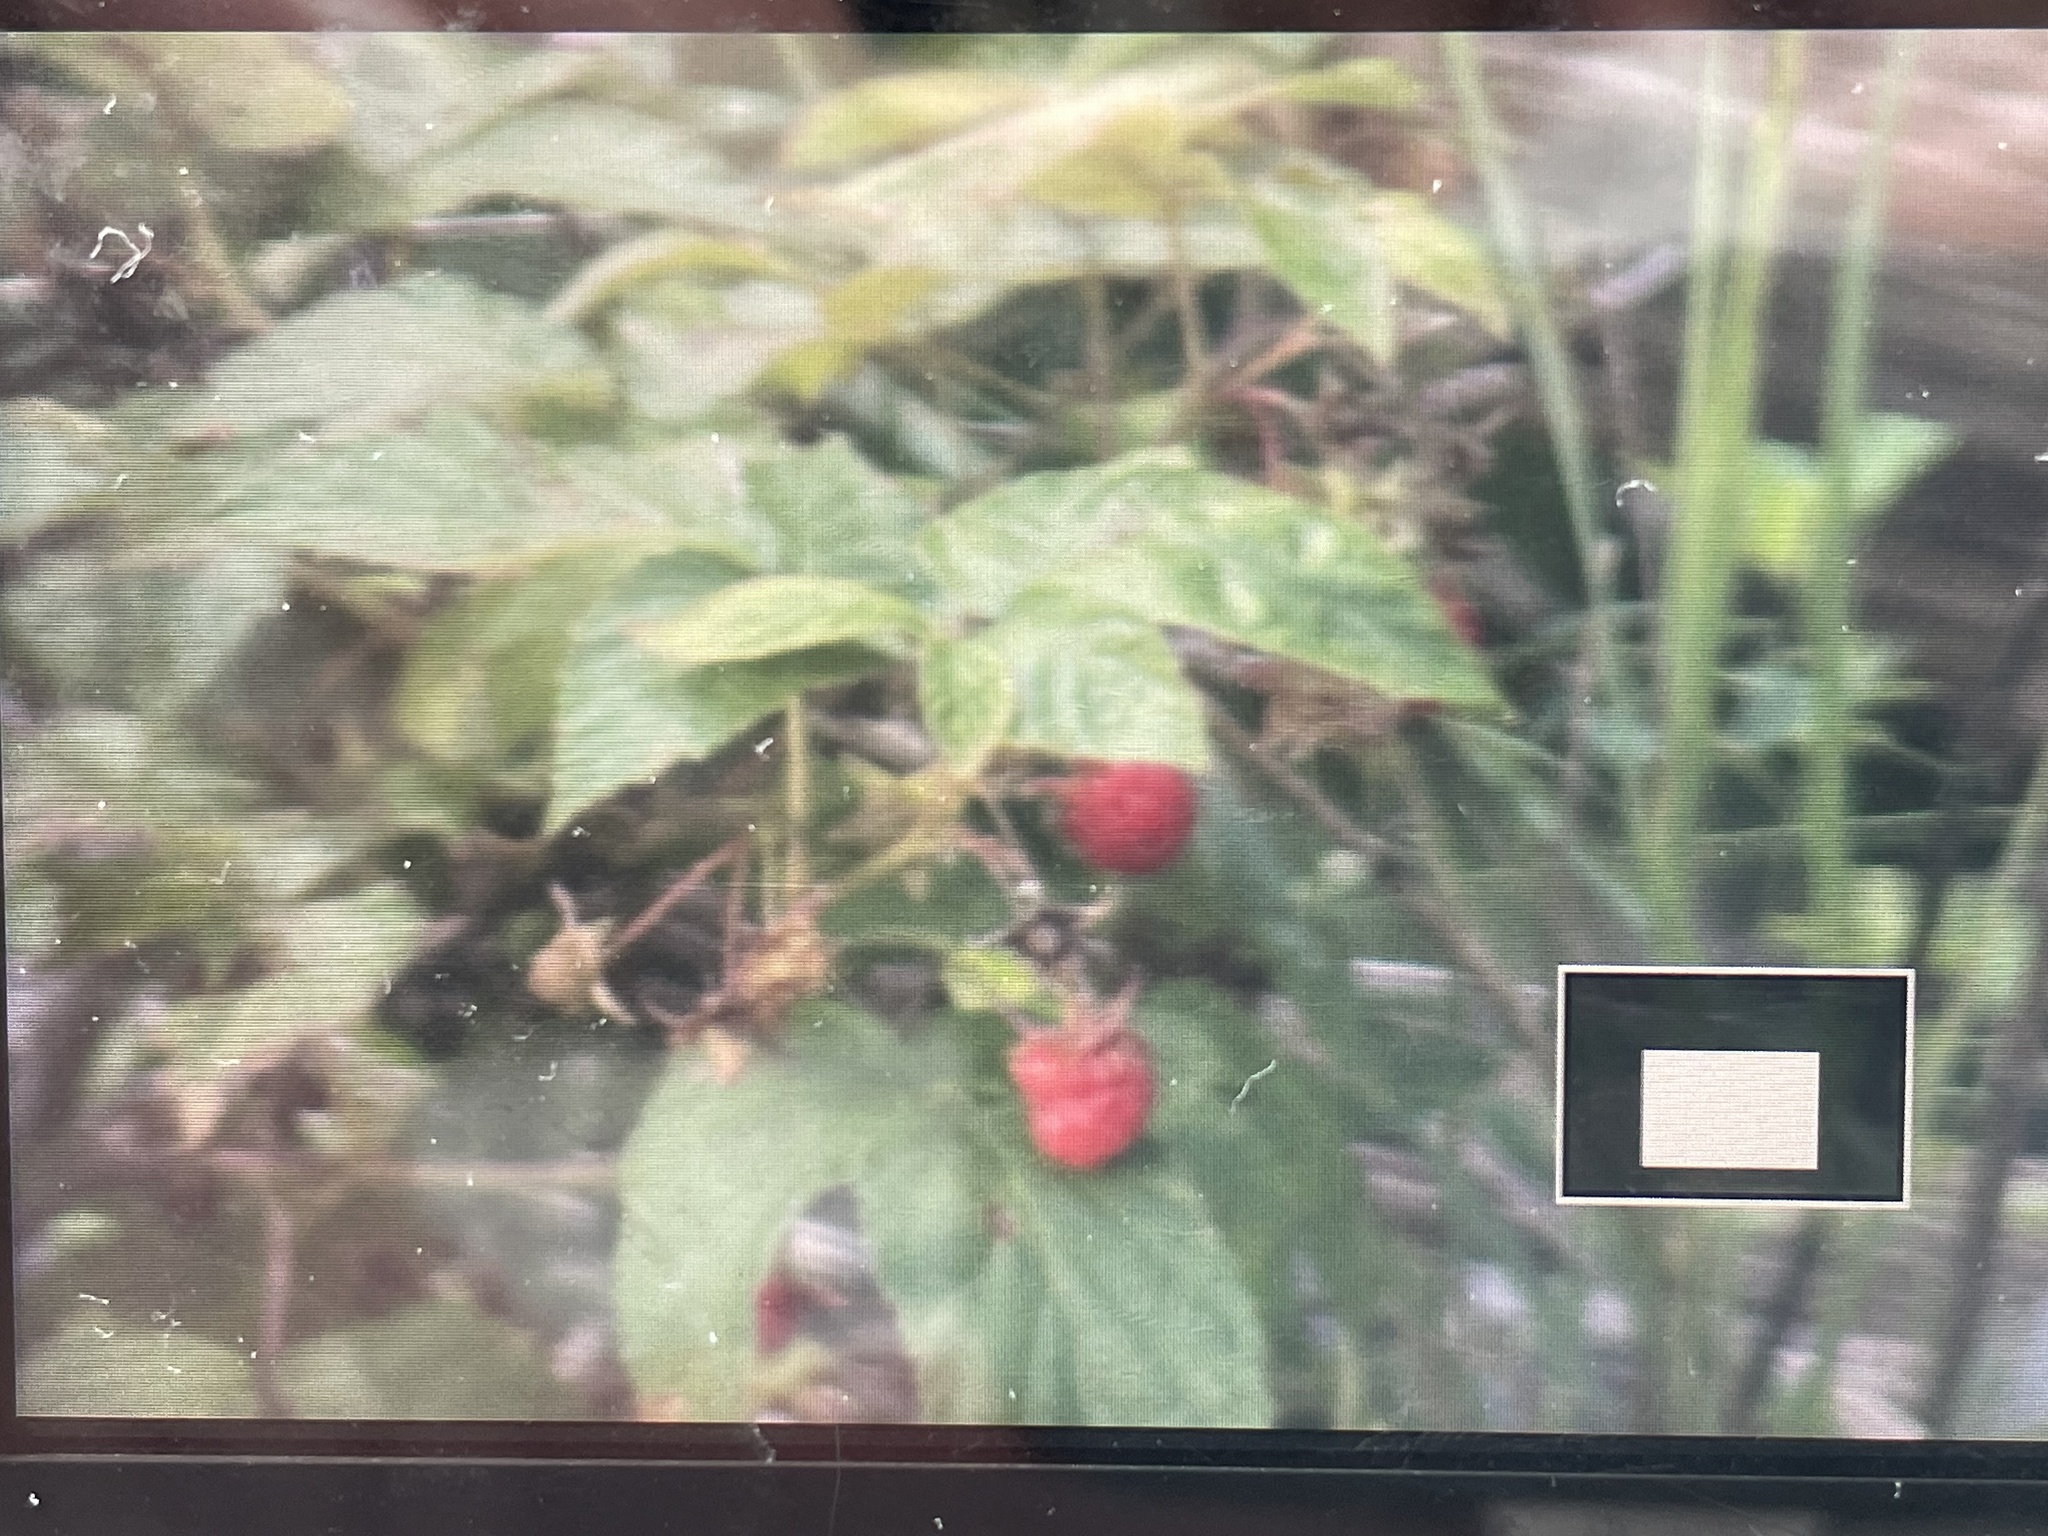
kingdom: Plantae
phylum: Tracheophyta
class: Magnoliopsida
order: Rosales
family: Rosaceae
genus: Rubus
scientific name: Rubus idaeus
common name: Raspberry
